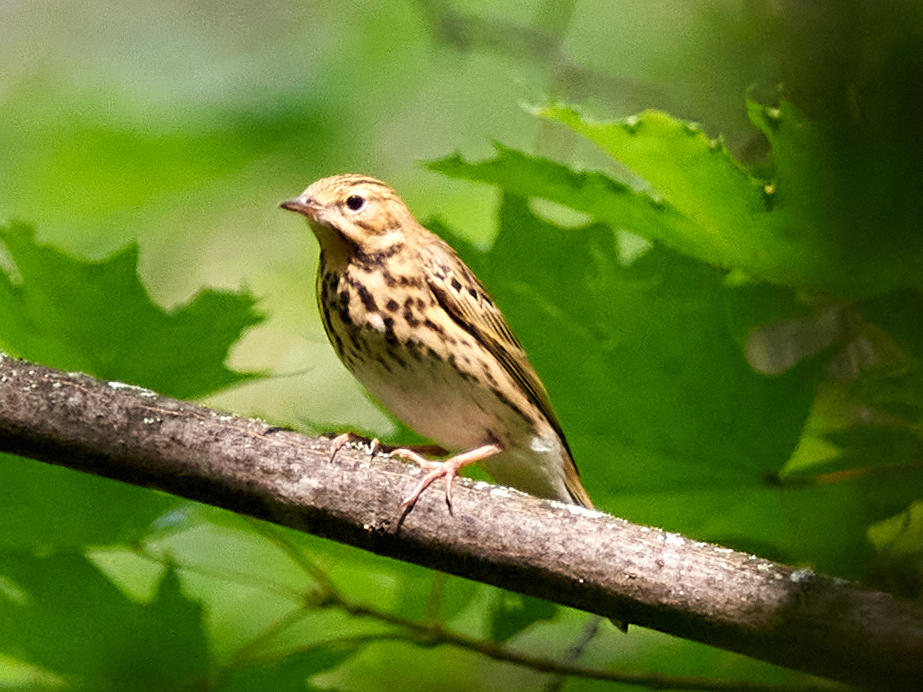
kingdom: Animalia
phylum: Chordata
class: Aves
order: Passeriformes
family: Motacillidae
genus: Anthus
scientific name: Anthus trivialis
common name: Tree pipit
